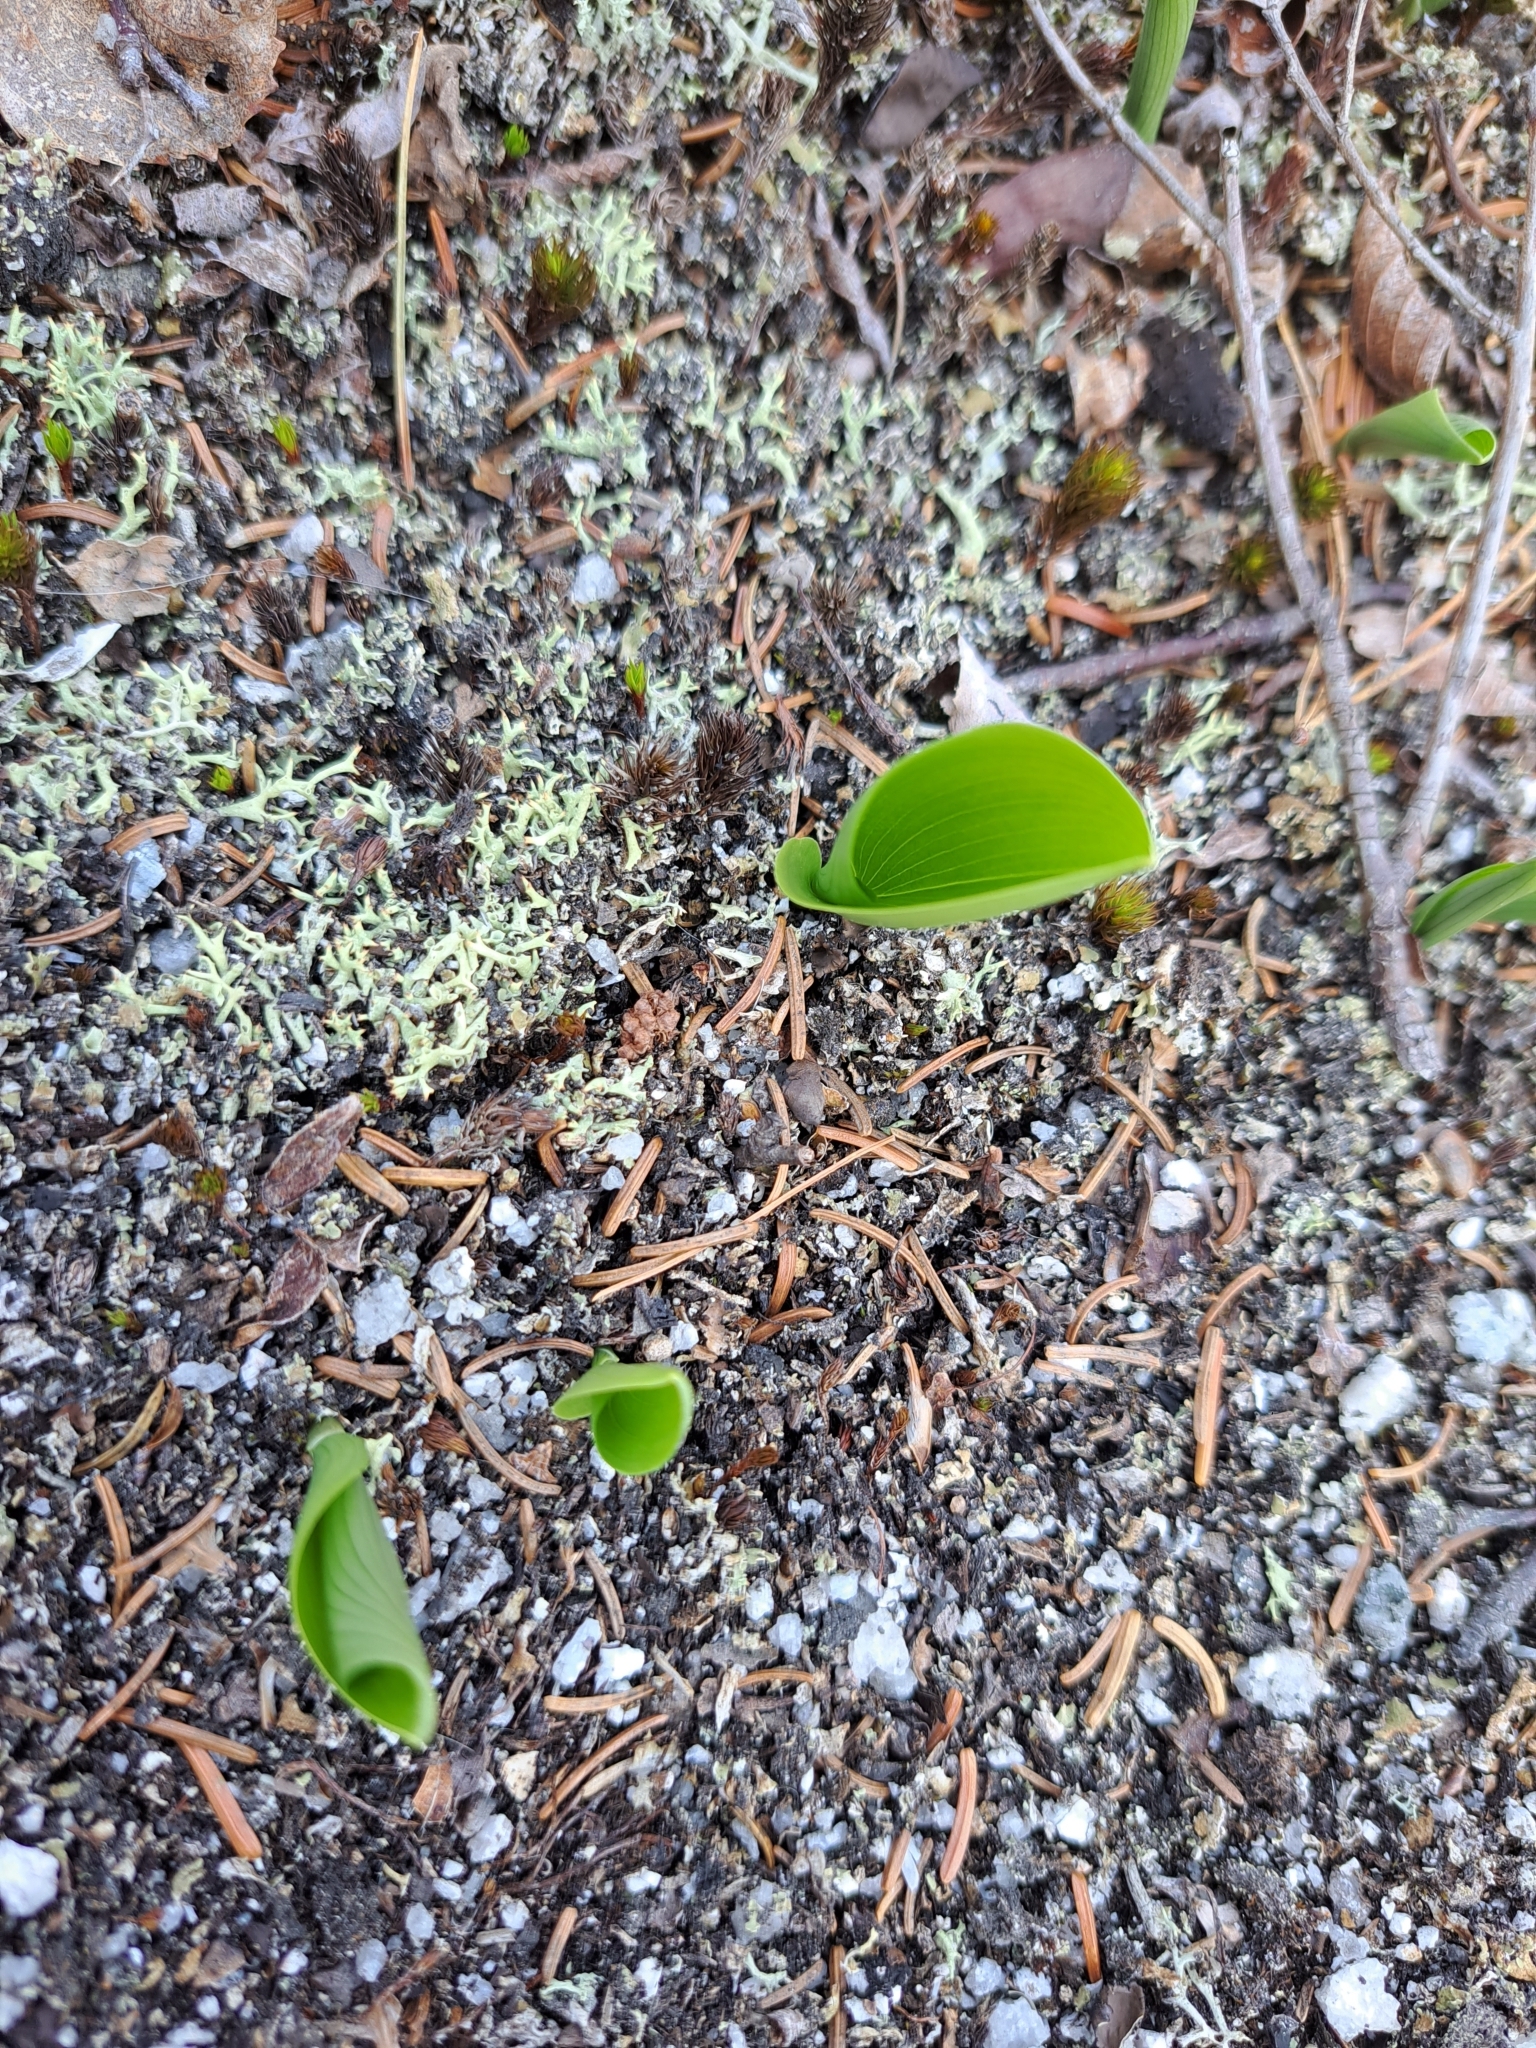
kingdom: Plantae
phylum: Tracheophyta
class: Liliopsida
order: Asparagales
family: Asparagaceae
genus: Maianthemum
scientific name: Maianthemum canadense
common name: False lily-of-the-valley
